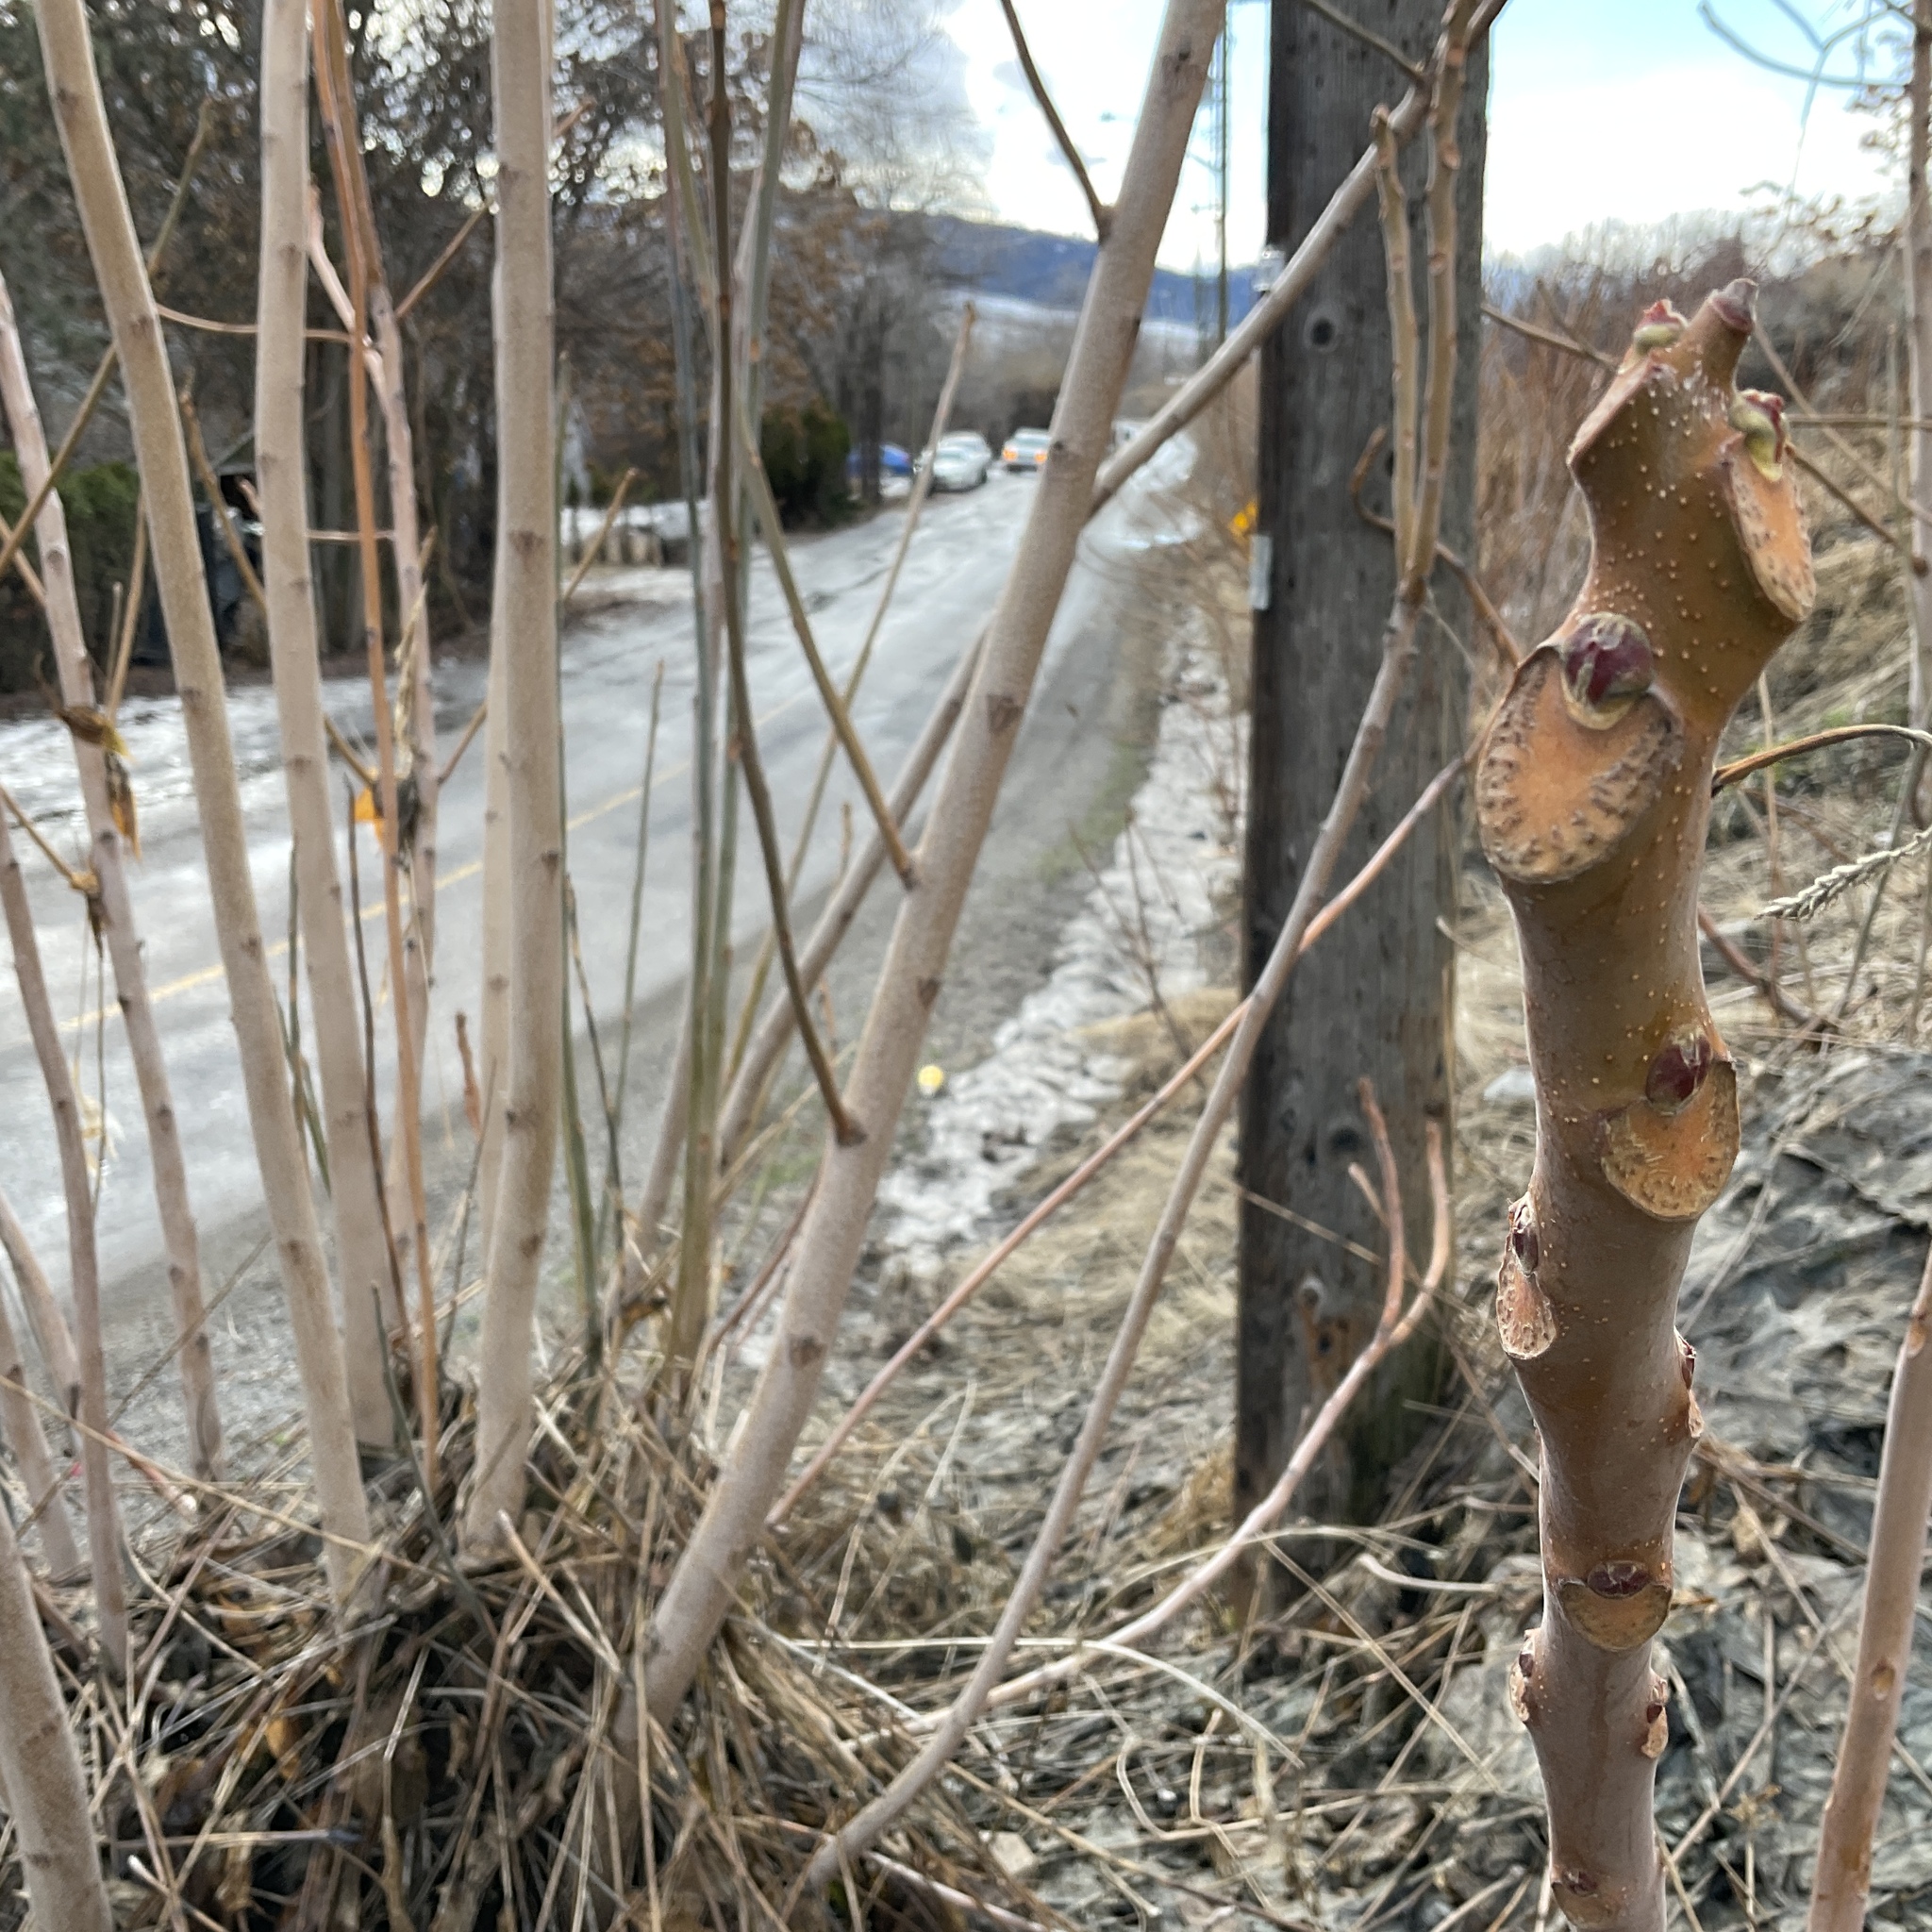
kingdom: Plantae
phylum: Tracheophyta
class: Magnoliopsida
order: Sapindales
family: Simaroubaceae
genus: Ailanthus
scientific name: Ailanthus altissima
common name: Tree-of-heaven
